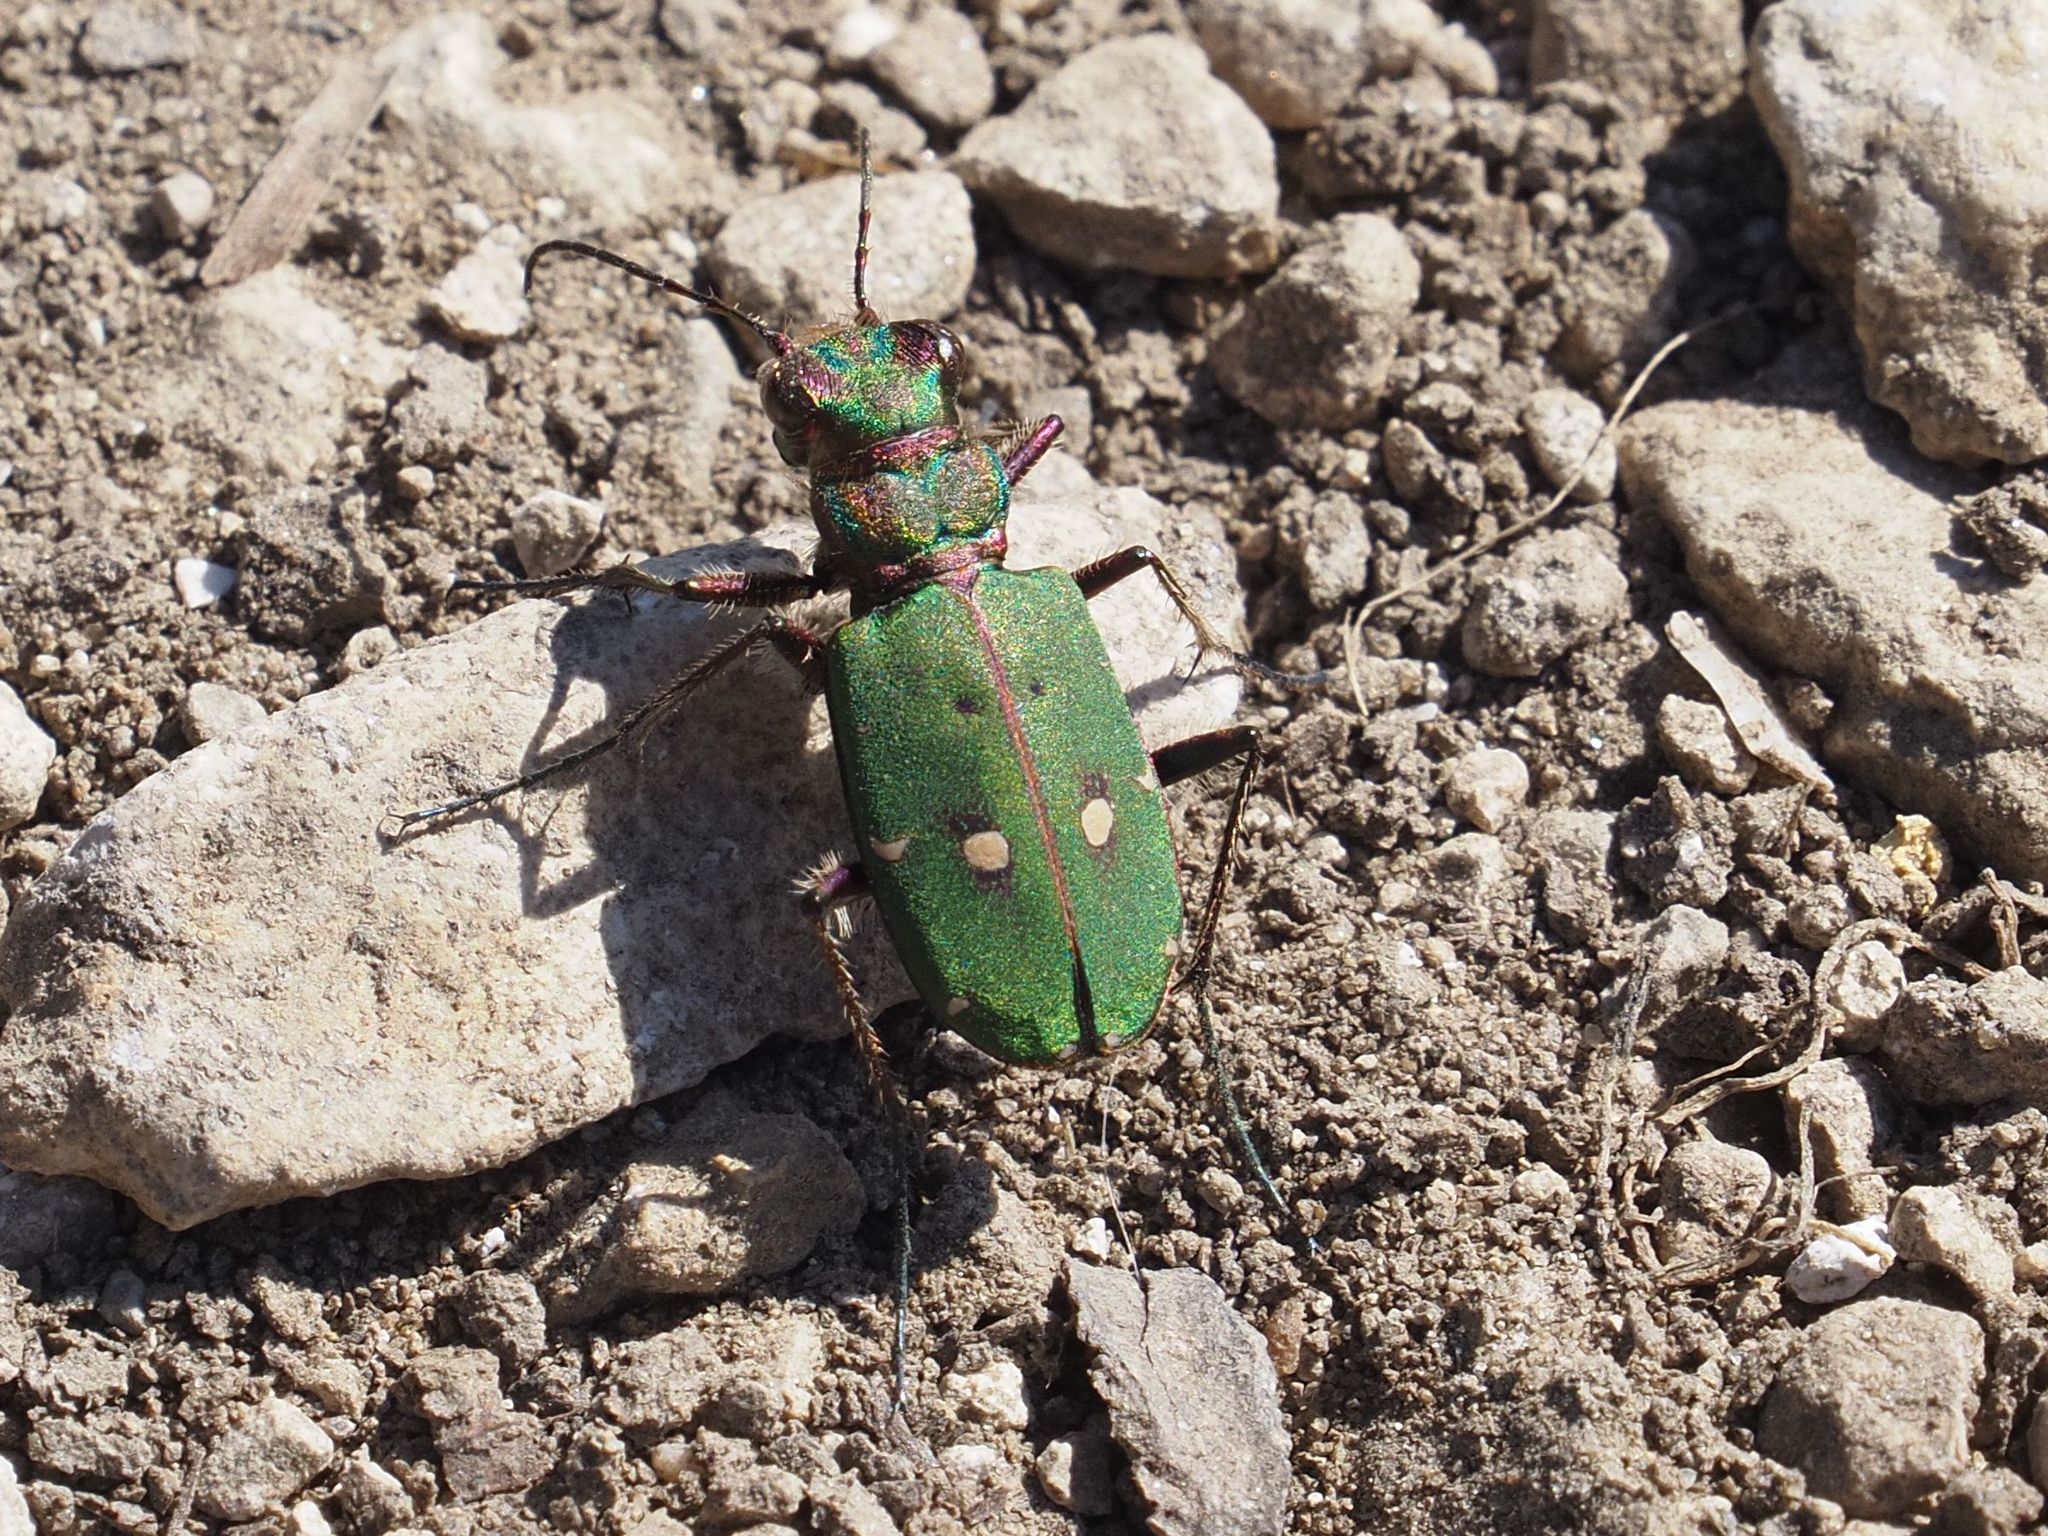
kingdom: Animalia
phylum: Arthropoda
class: Insecta
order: Coleoptera
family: Carabidae
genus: Cicindela
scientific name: Cicindela campestris
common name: Common tiger beetle
